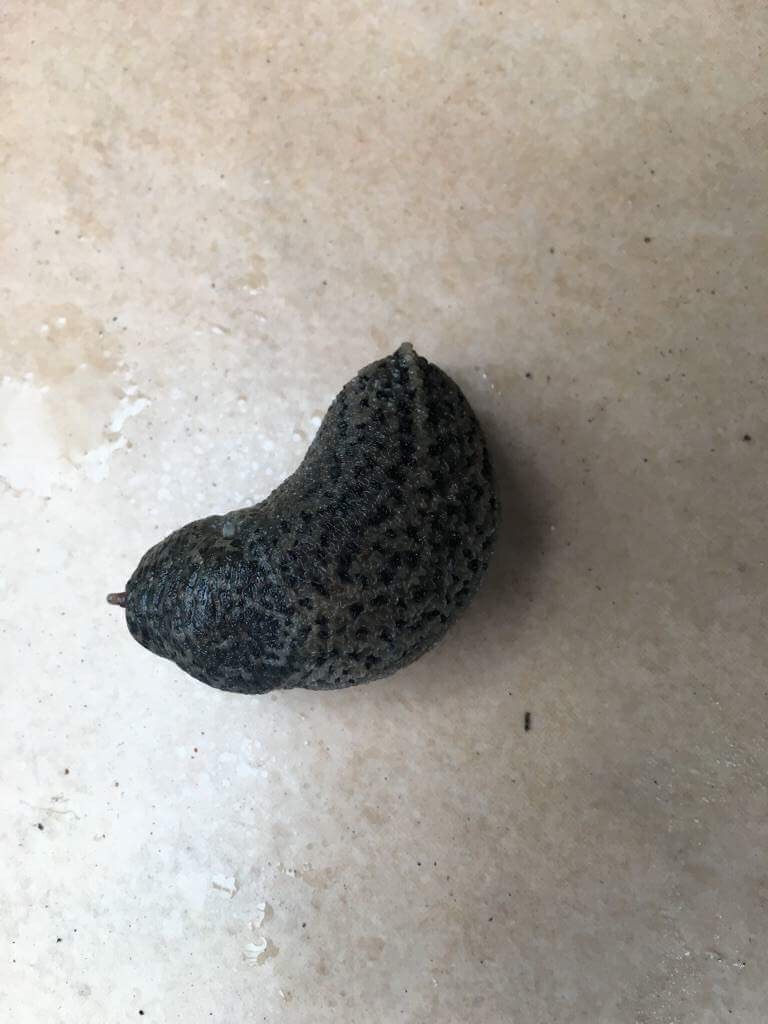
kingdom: Animalia
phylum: Mollusca
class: Gastropoda
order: Stylommatophora
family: Limacidae
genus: Limax
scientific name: Limax maximus
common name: Great grey slug
